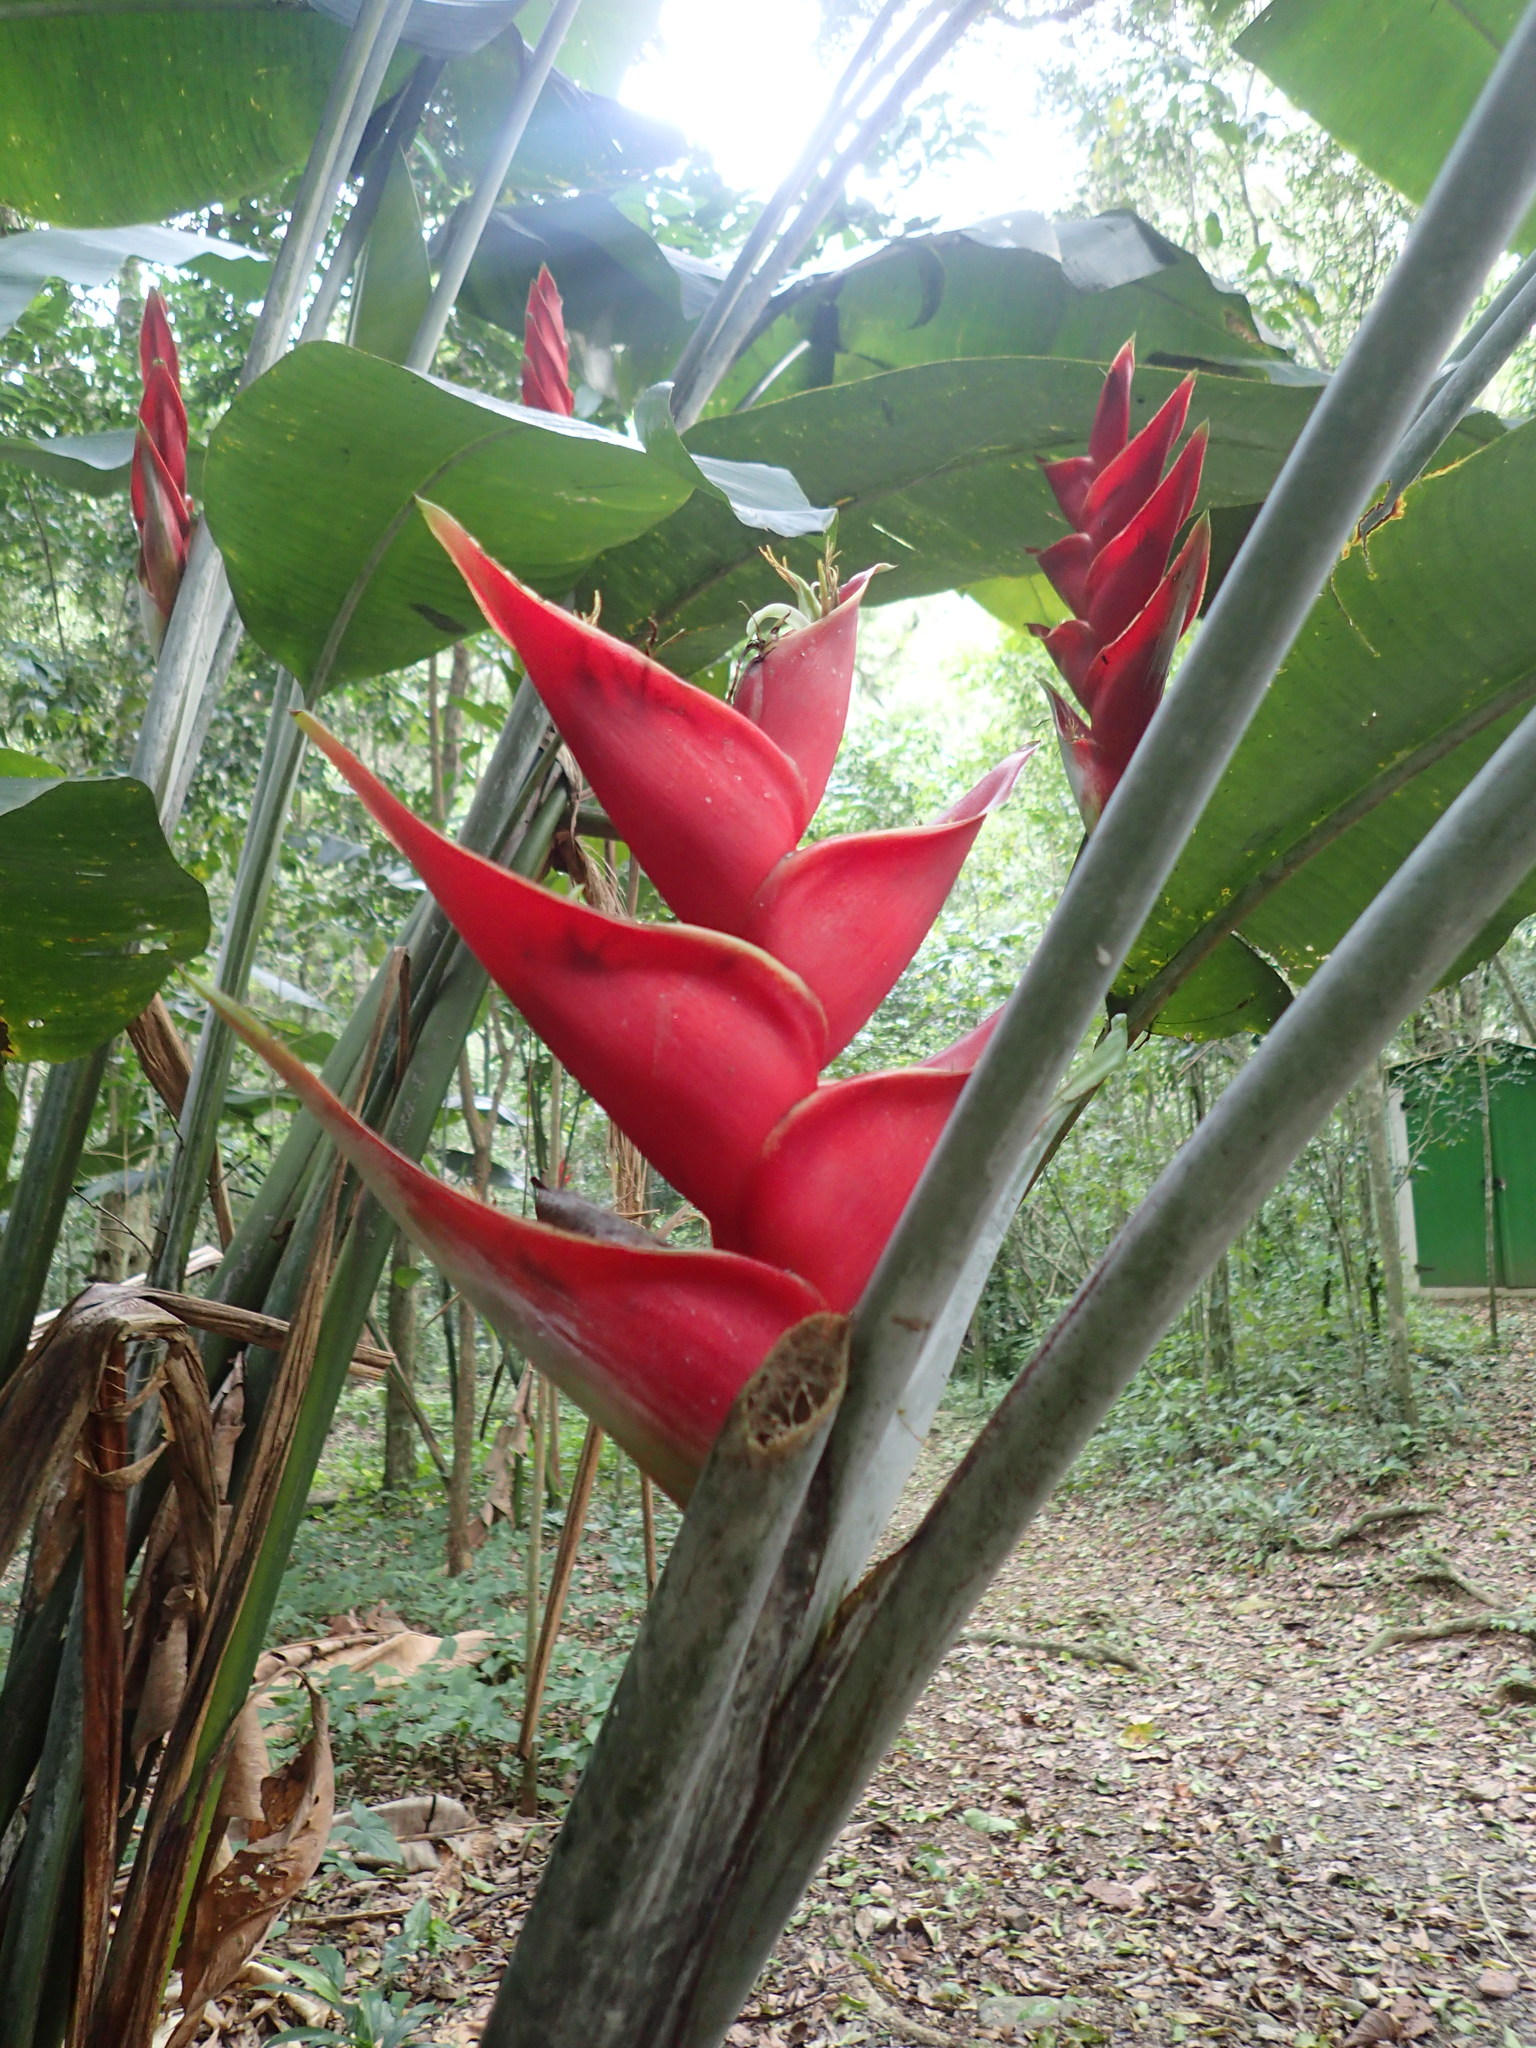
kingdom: Plantae
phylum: Tracheophyta
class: Liliopsida
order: Zingiberales
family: Heliconiaceae
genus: Heliconia
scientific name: Heliconia caribaea
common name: Wild plantain
